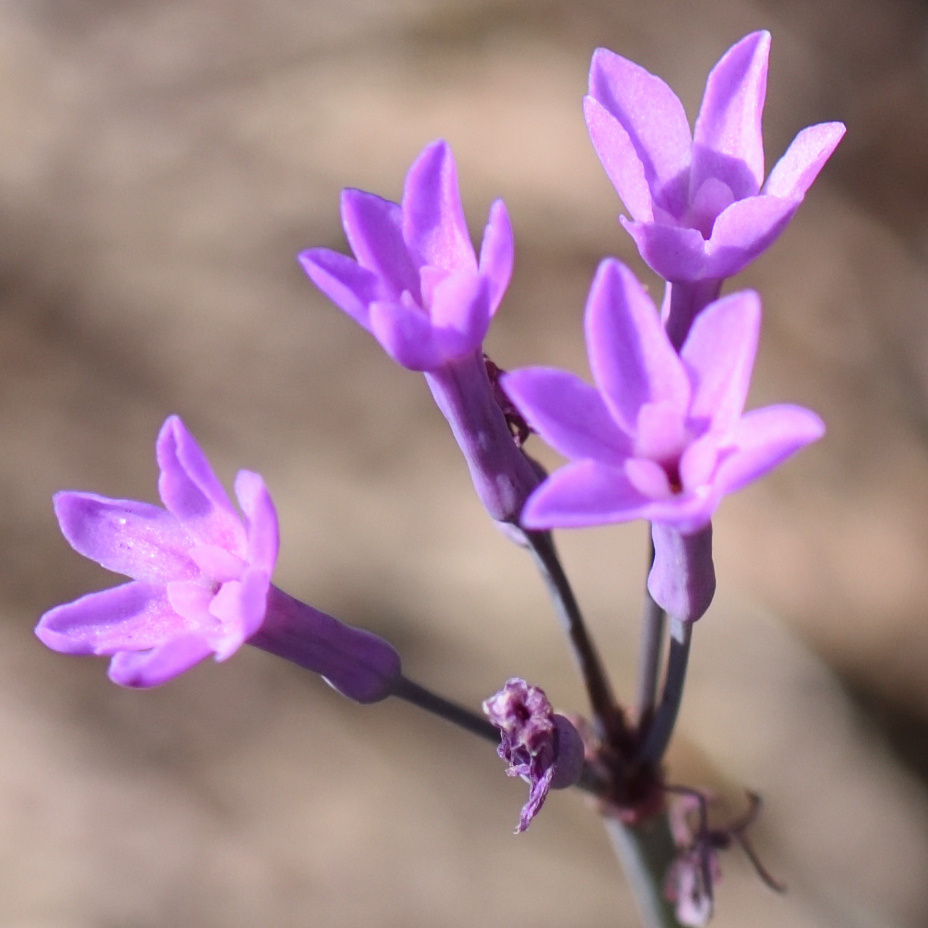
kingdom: Plantae
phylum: Tracheophyta
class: Liliopsida
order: Asparagales
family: Amaryllidaceae
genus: Tulbaghia
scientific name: Tulbaghia violacea
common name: Society garlic
